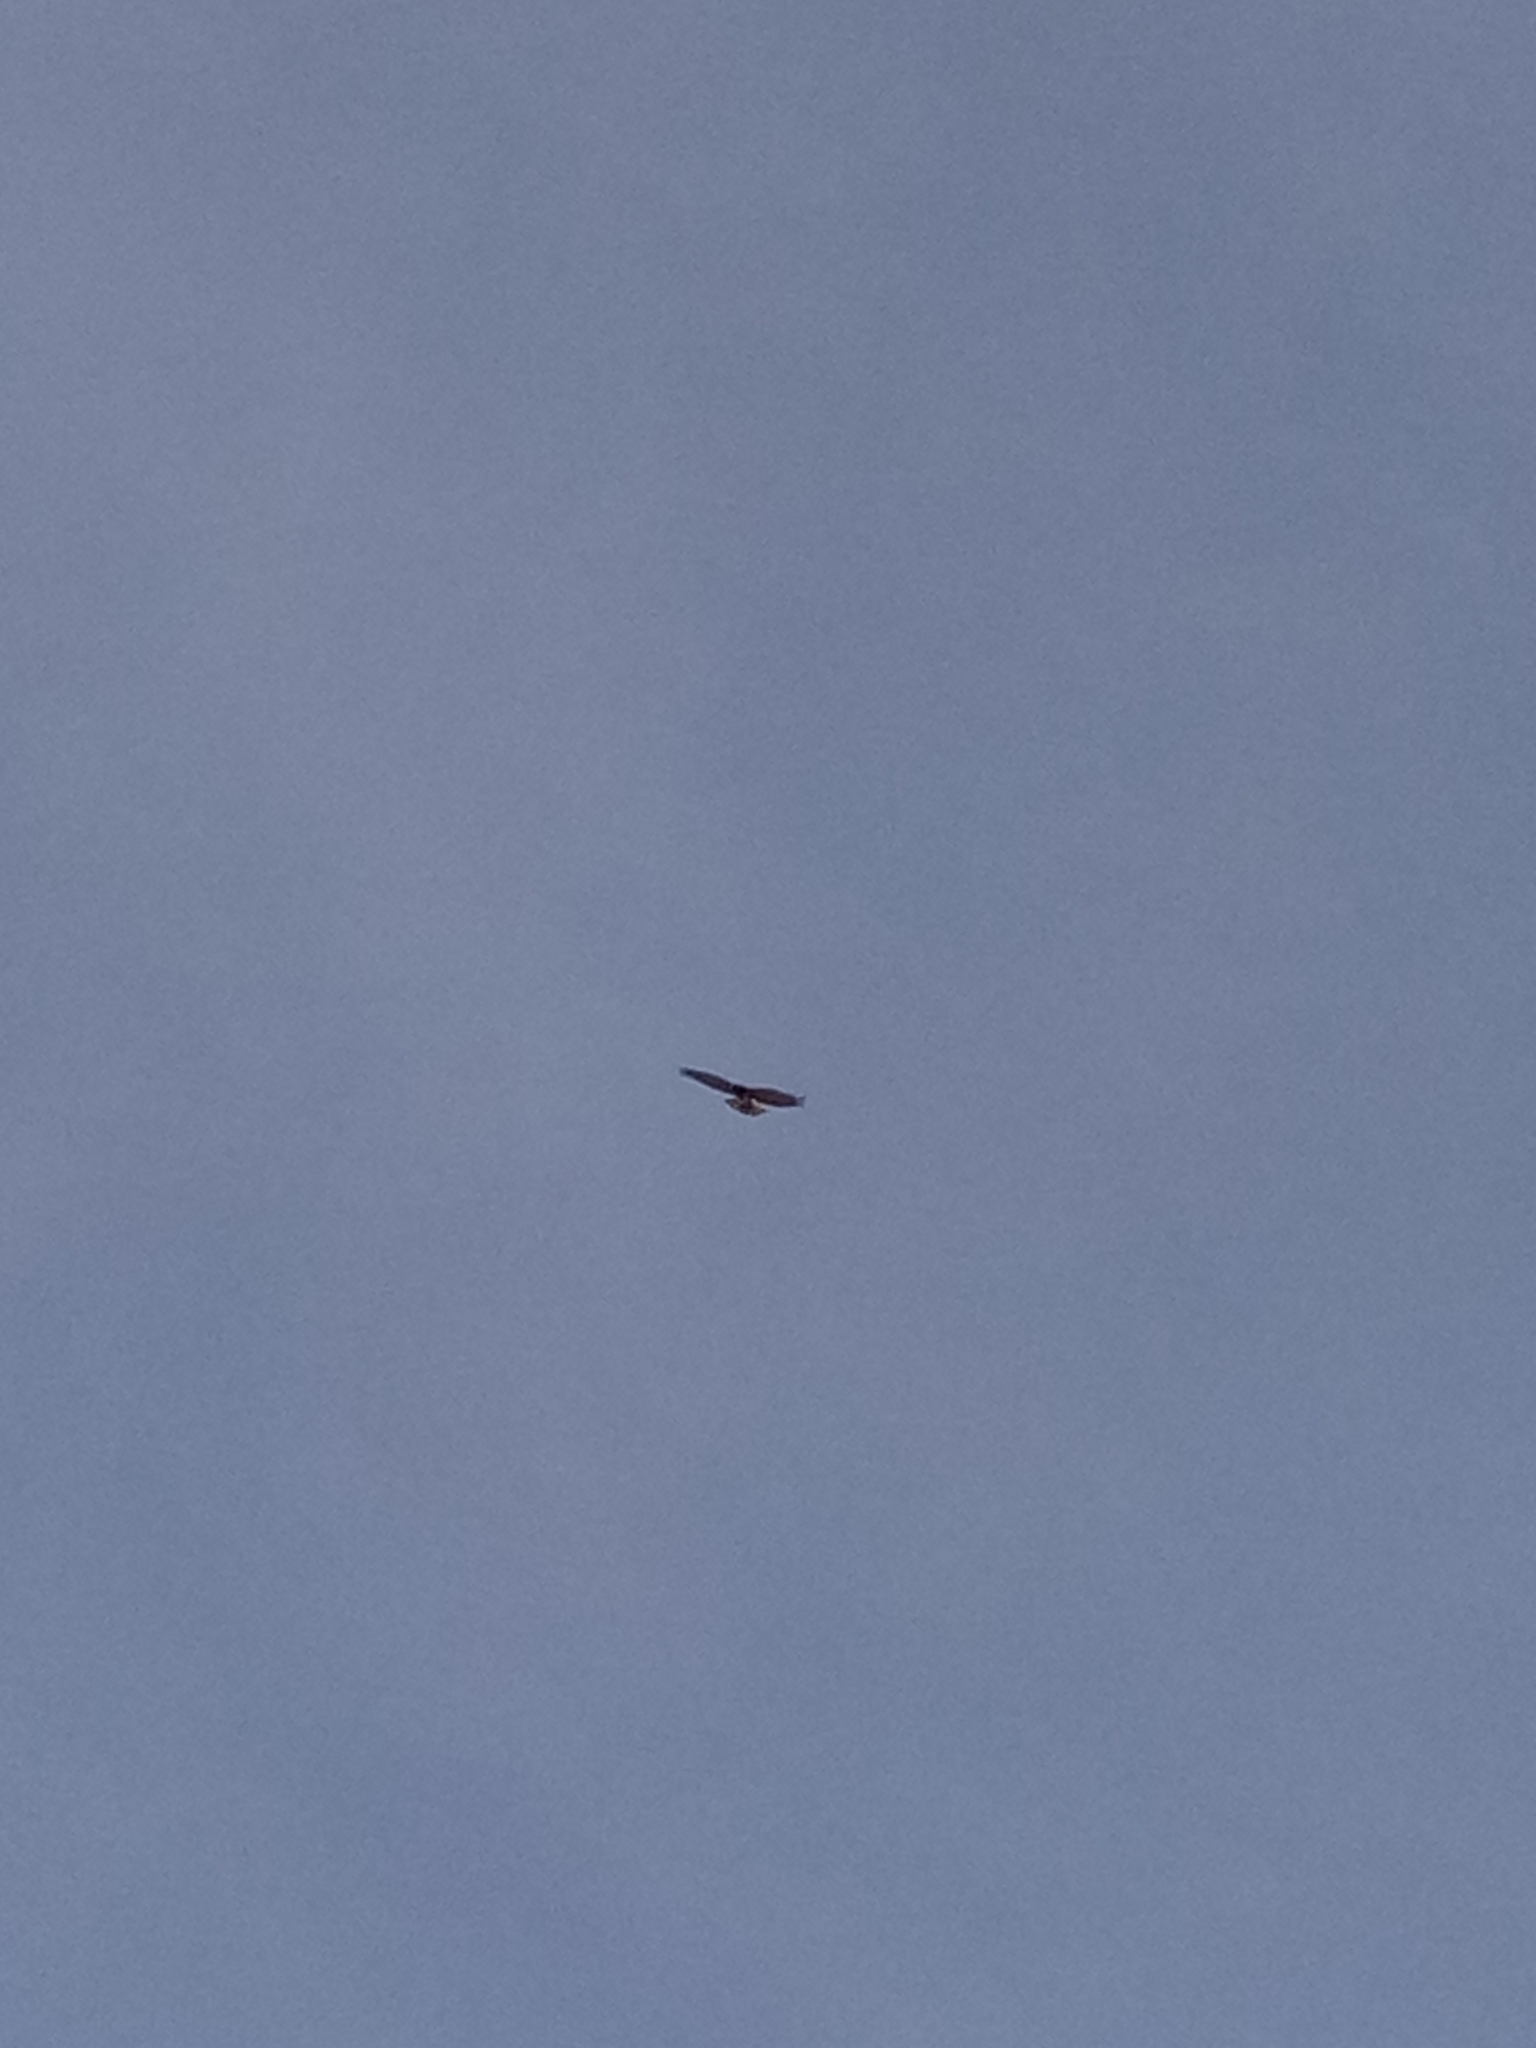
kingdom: Animalia
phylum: Chordata
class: Aves
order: Accipitriformes
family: Accipitridae
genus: Circaetus
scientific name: Circaetus gallicus
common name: Short-toed snake eagle
